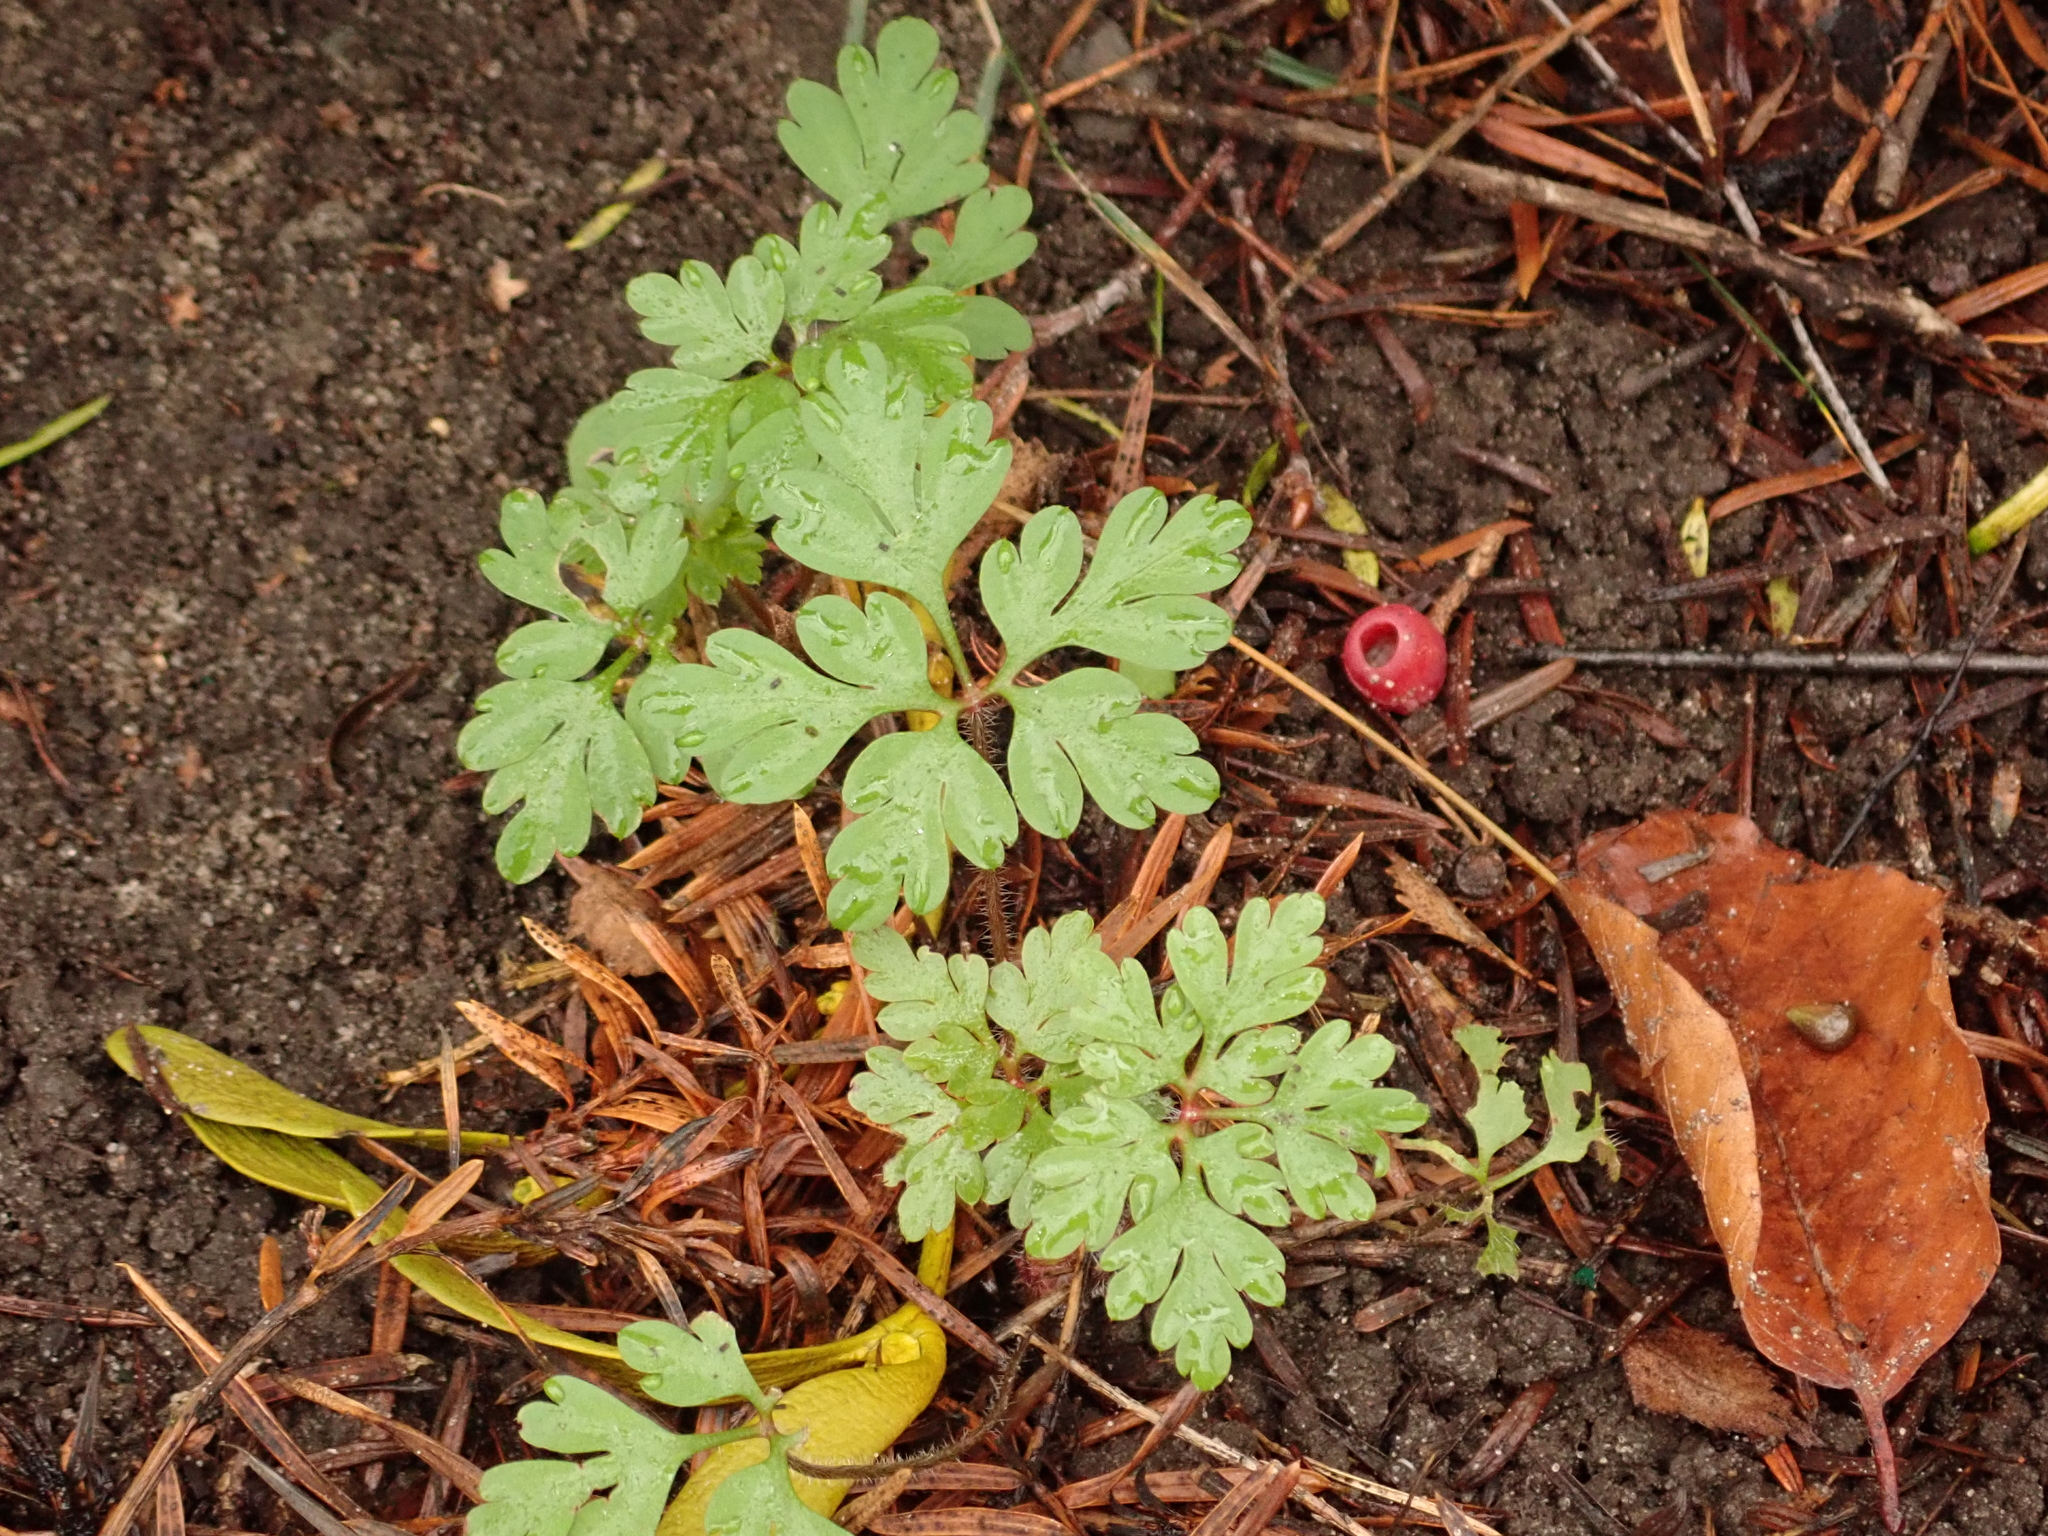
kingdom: Plantae
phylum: Tracheophyta
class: Magnoliopsida
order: Geraniales
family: Geraniaceae
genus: Geranium
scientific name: Geranium robertianum
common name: Herb-robert
